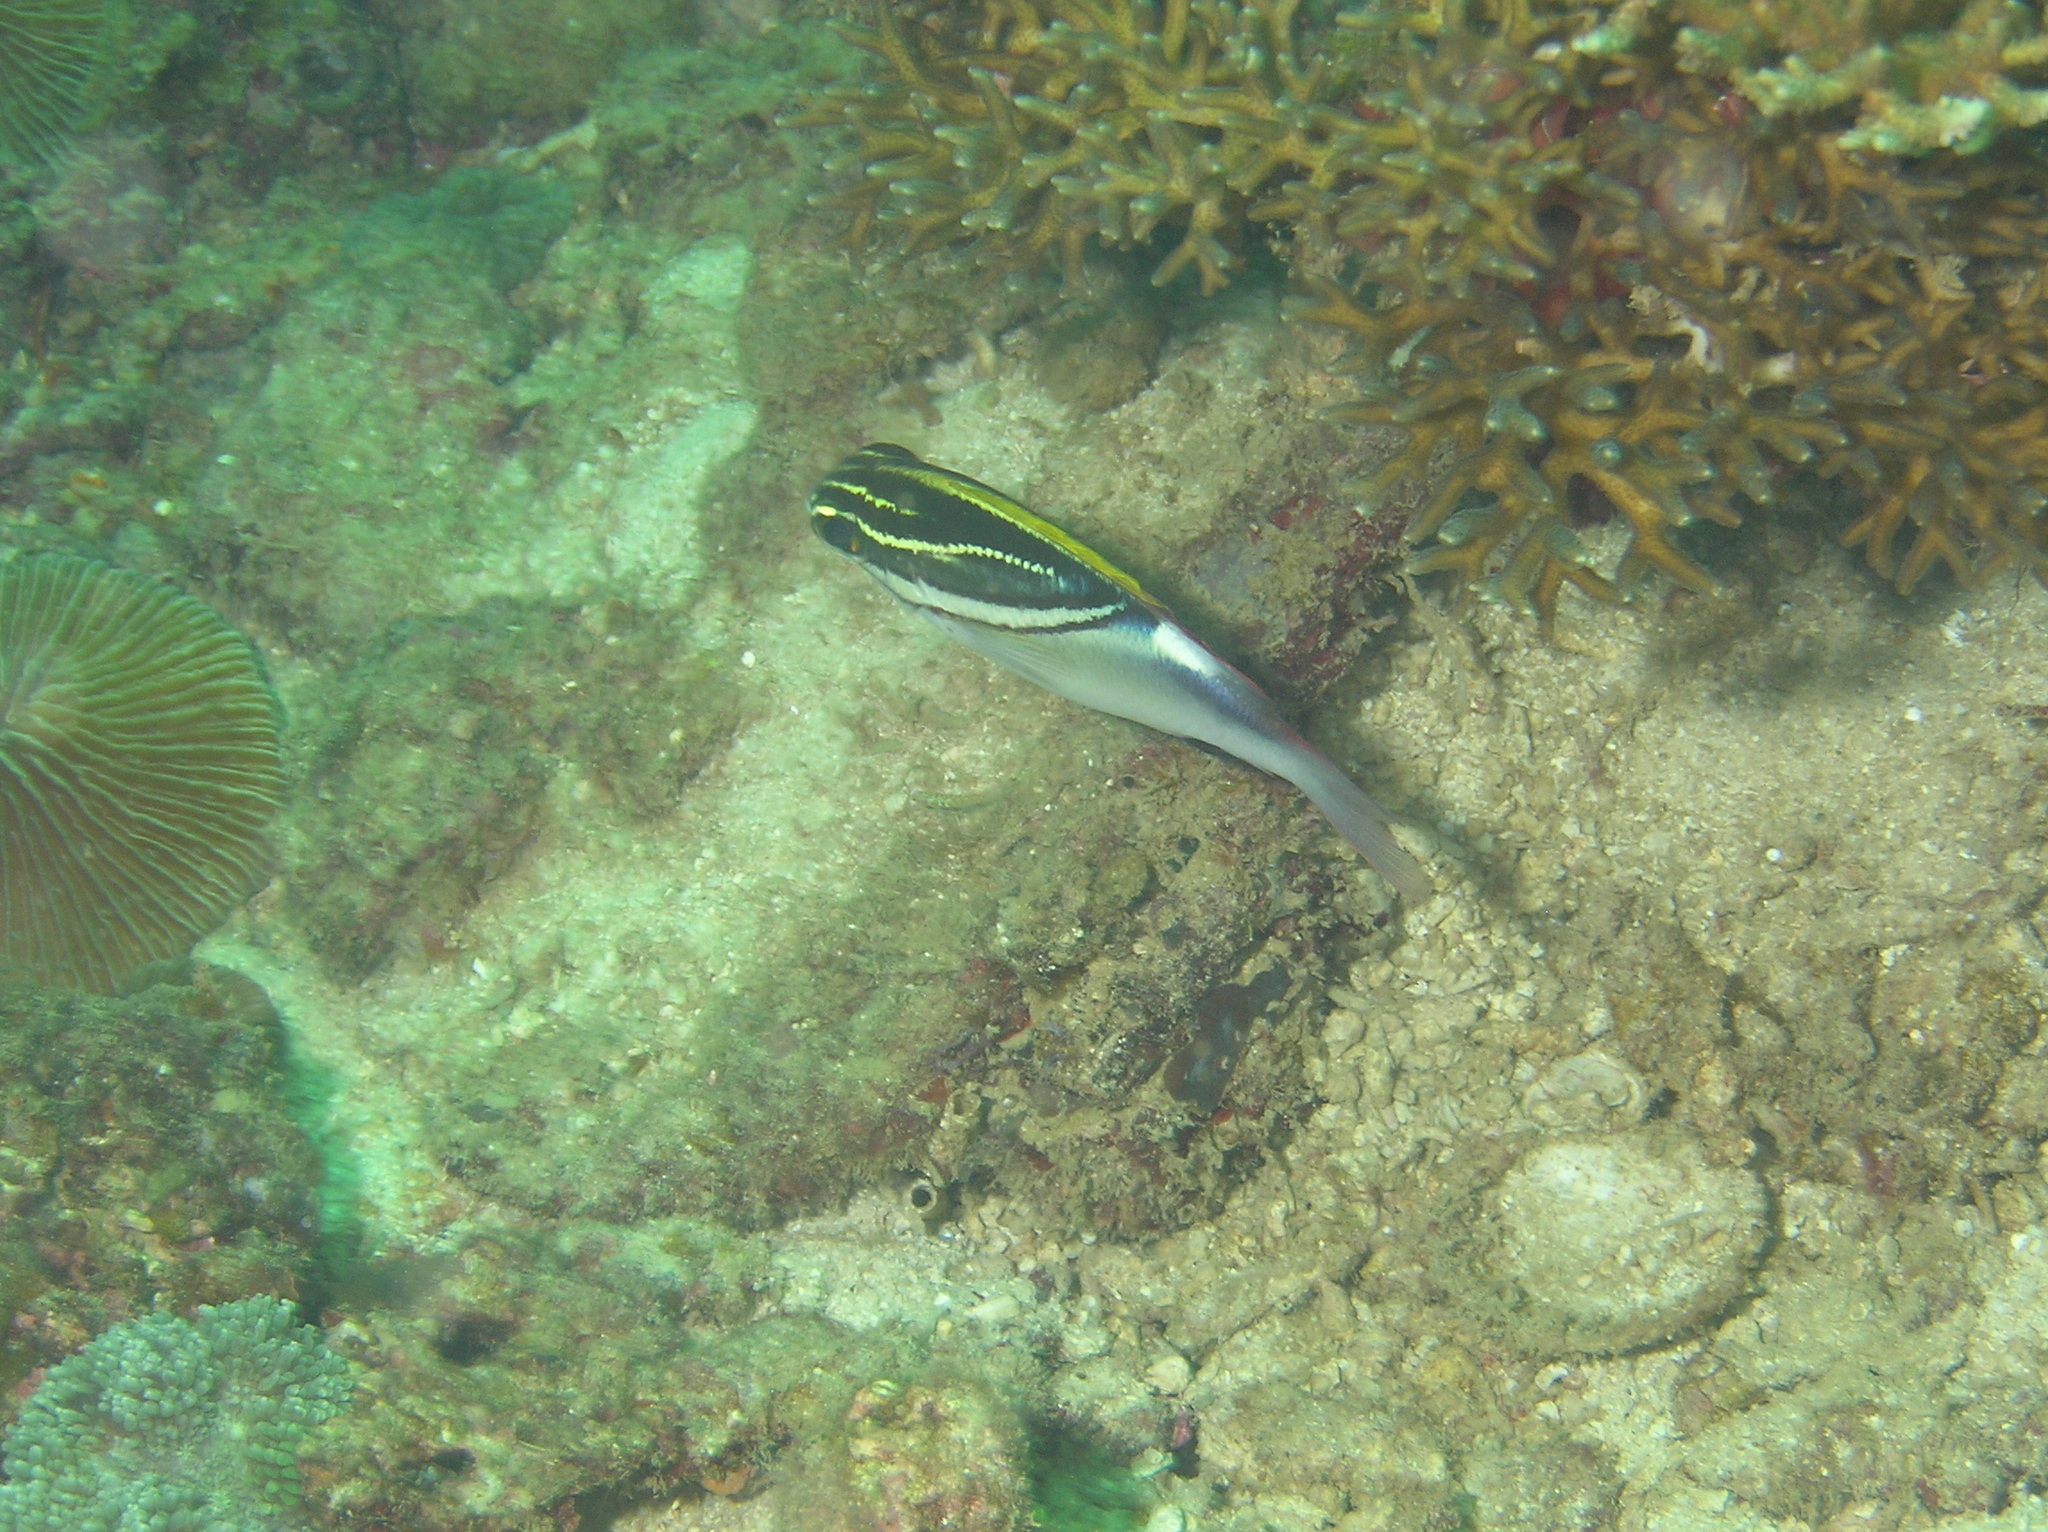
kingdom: Animalia
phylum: Chordata
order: Perciformes
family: Nemipteridae
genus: Scolopsis
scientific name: Scolopsis bilineata
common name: Two-lined monocle bream
